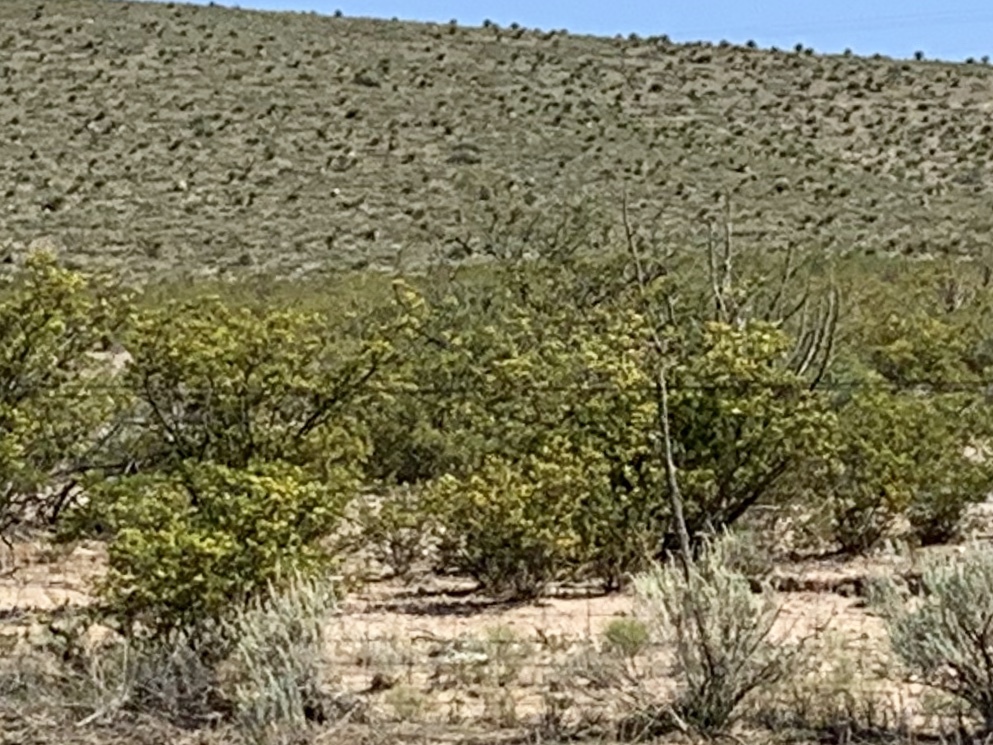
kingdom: Plantae
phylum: Tracheophyta
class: Magnoliopsida
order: Zygophyllales
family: Zygophyllaceae
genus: Larrea
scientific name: Larrea tridentata
